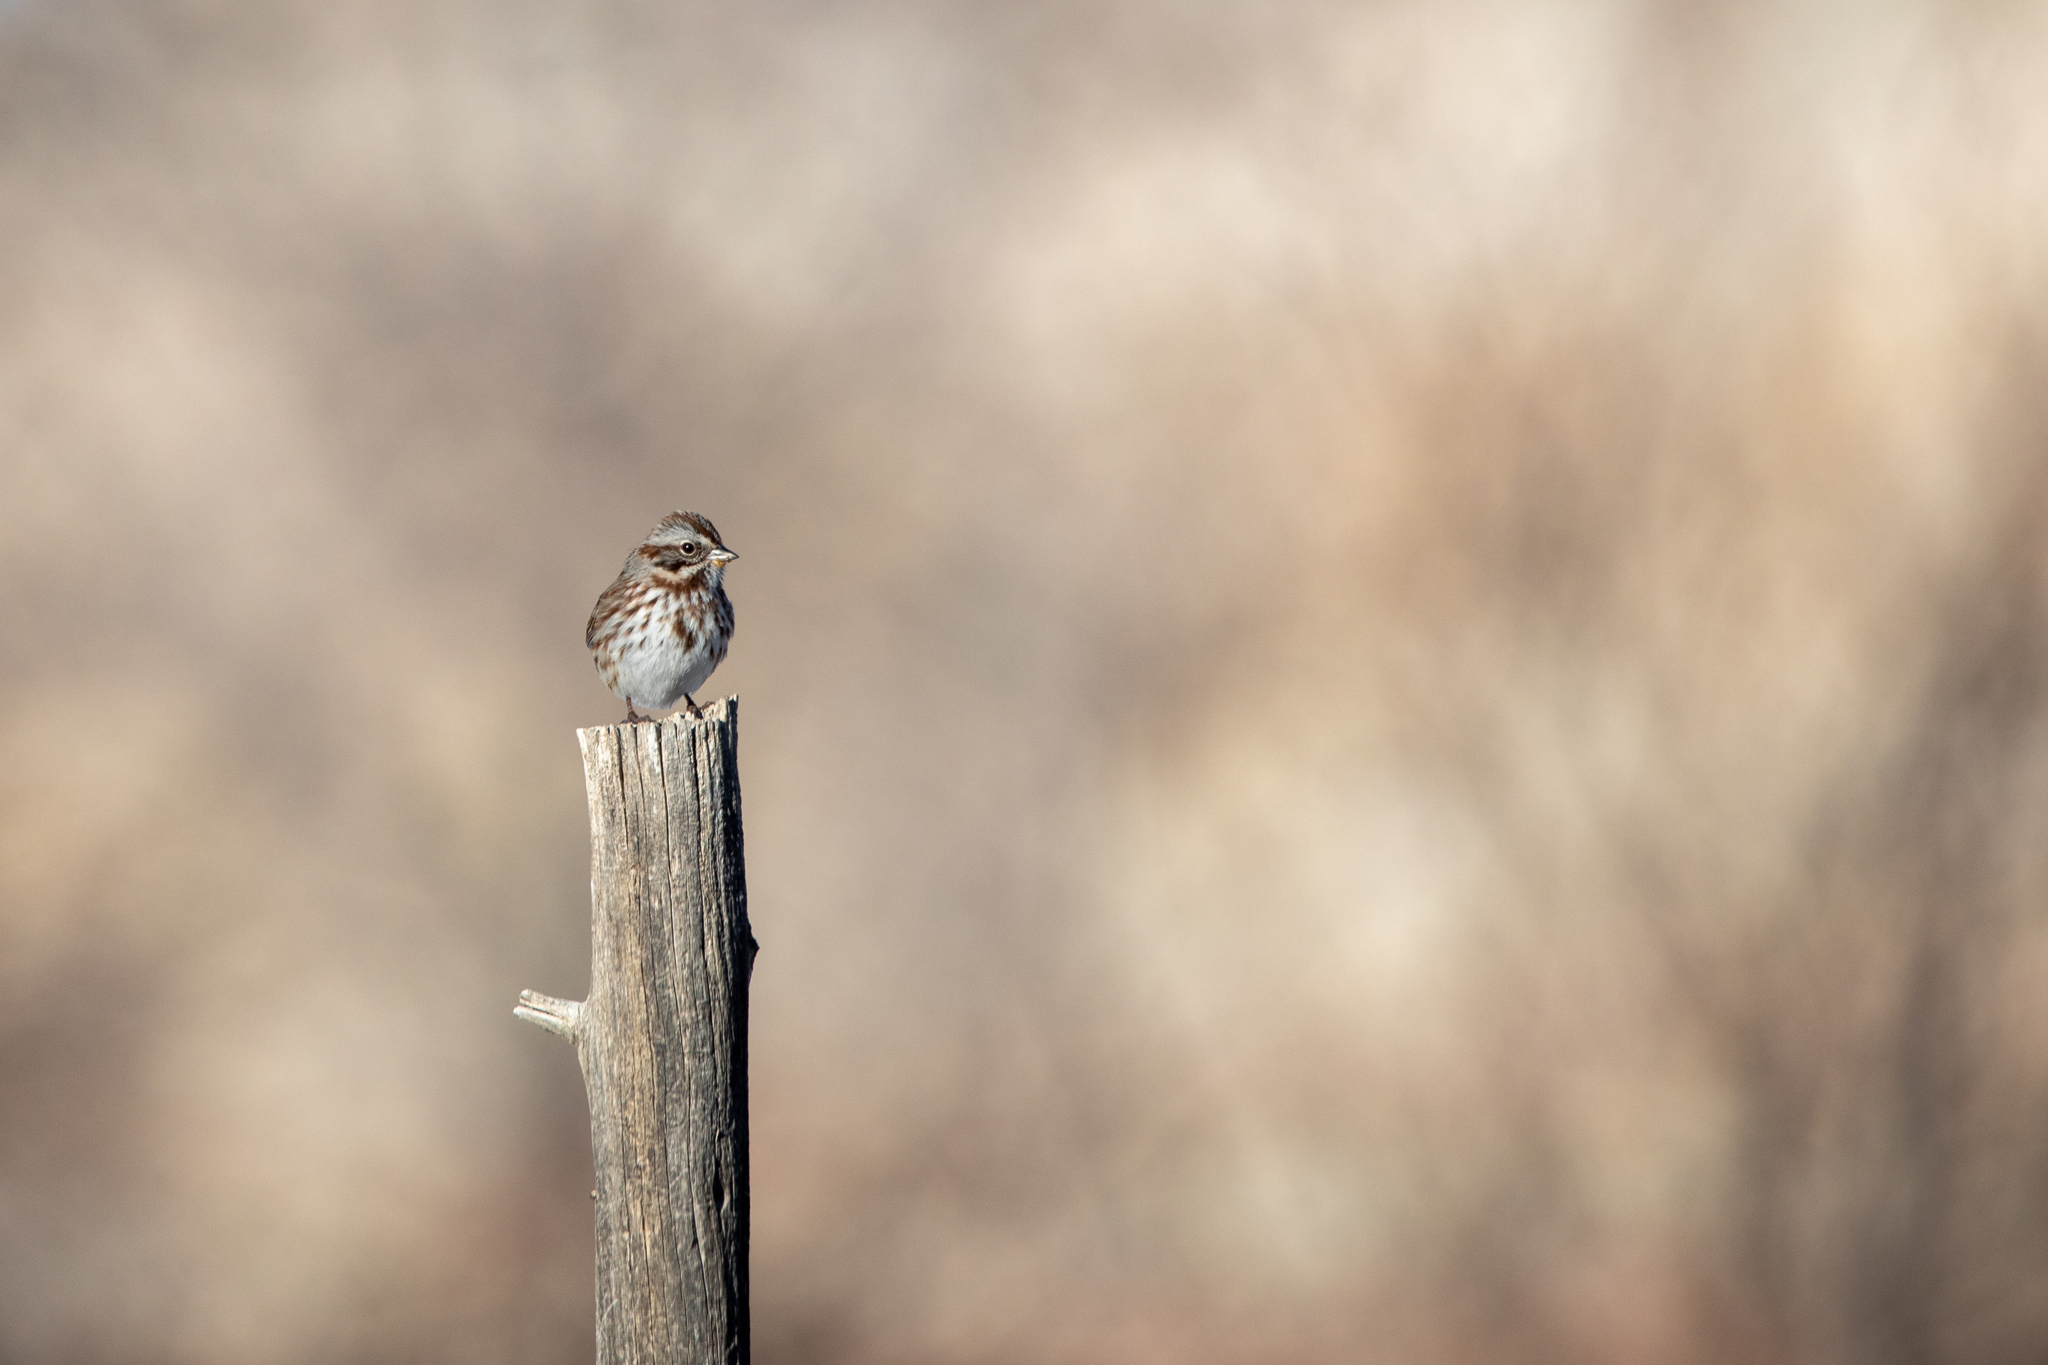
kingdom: Animalia
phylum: Chordata
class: Aves
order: Passeriformes
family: Passerellidae
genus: Melospiza
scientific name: Melospiza melodia
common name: Song sparrow
